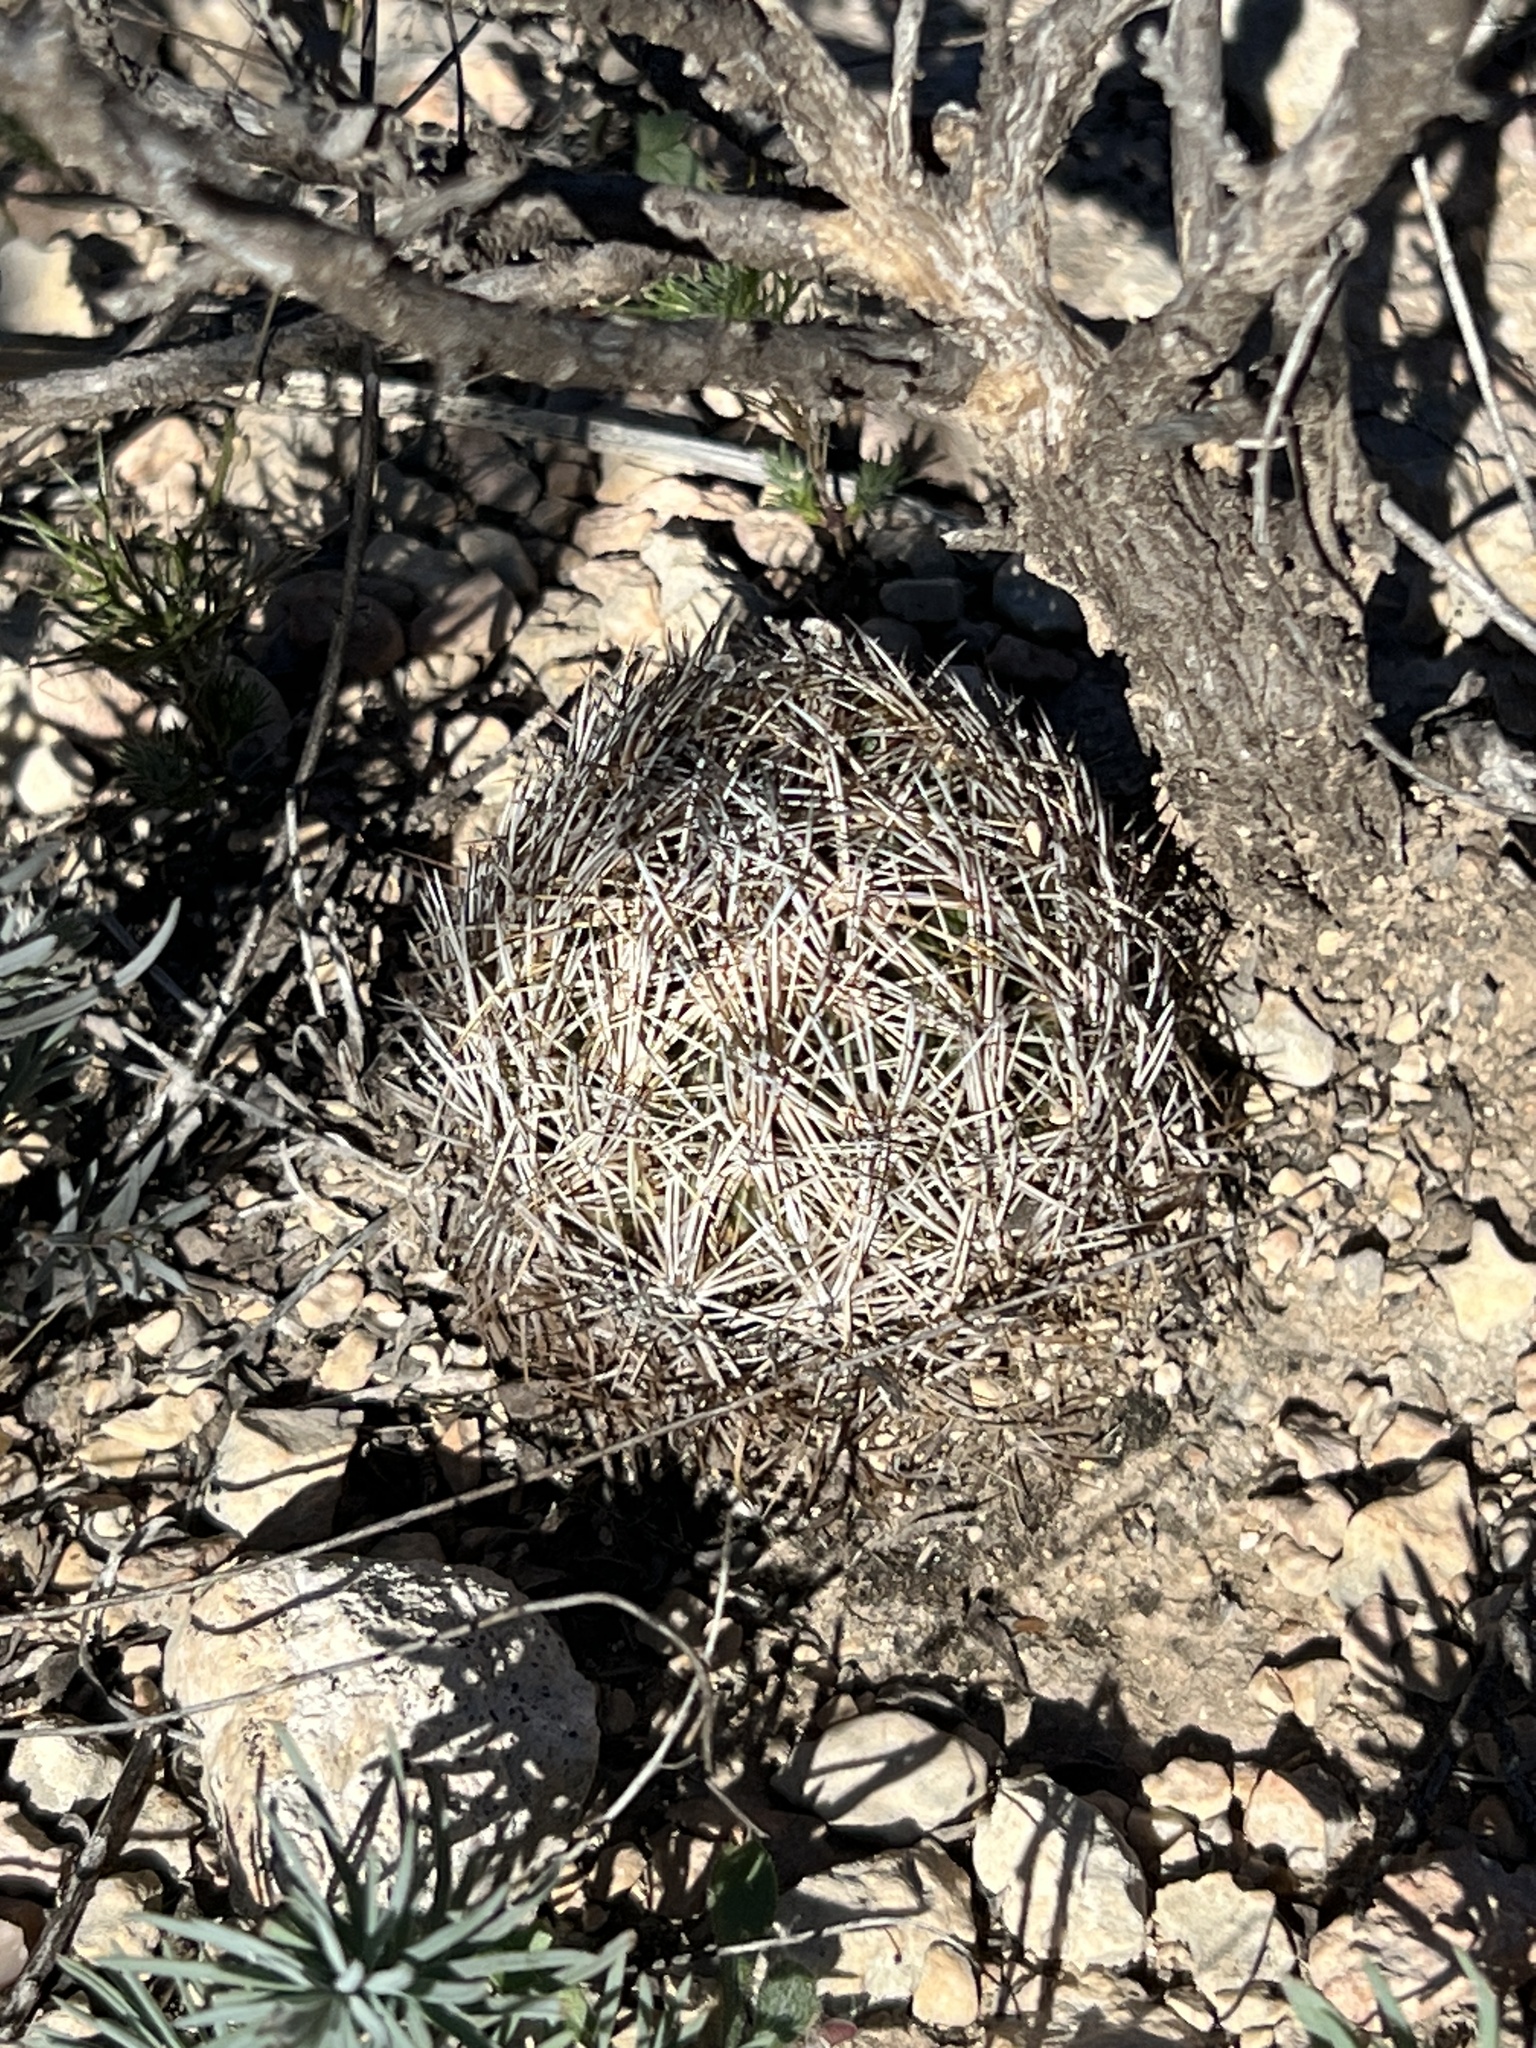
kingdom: Plantae
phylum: Tracheophyta
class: Magnoliopsida
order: Caryophyllales
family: Cactaceae
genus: Coryphantha
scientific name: Coryphantha echinus
